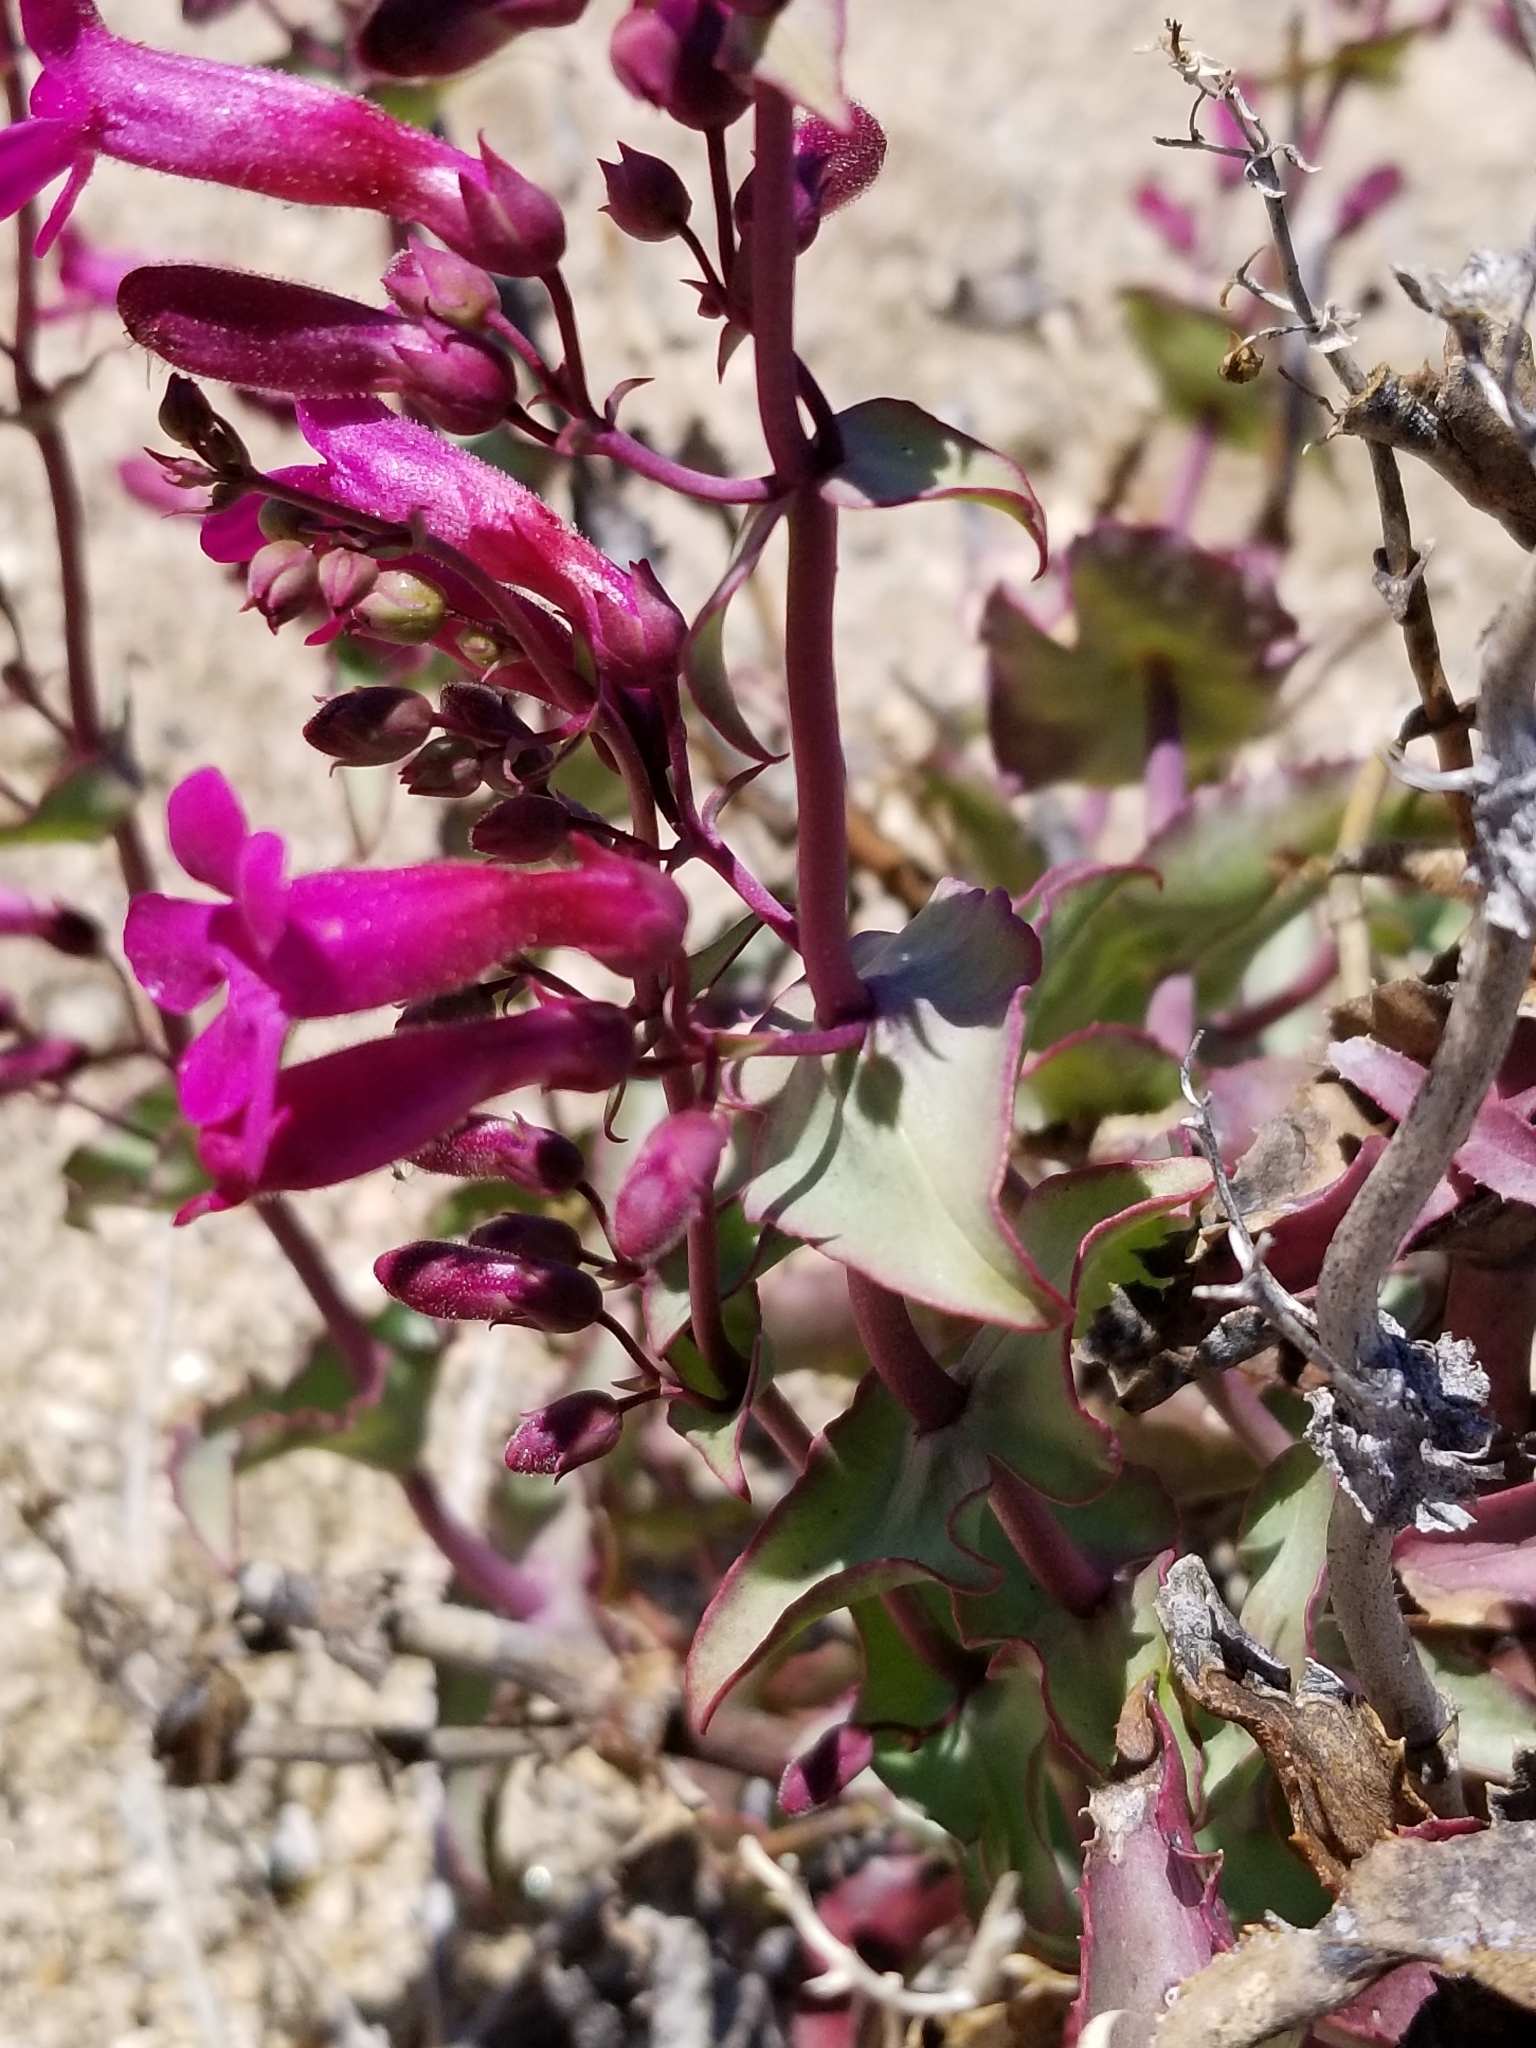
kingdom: Plantae
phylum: Tracheophyta
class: Magnoliopsida
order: Lamiales
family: Plantaginaceae
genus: Penstemon
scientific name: Penstemon clevelandii
